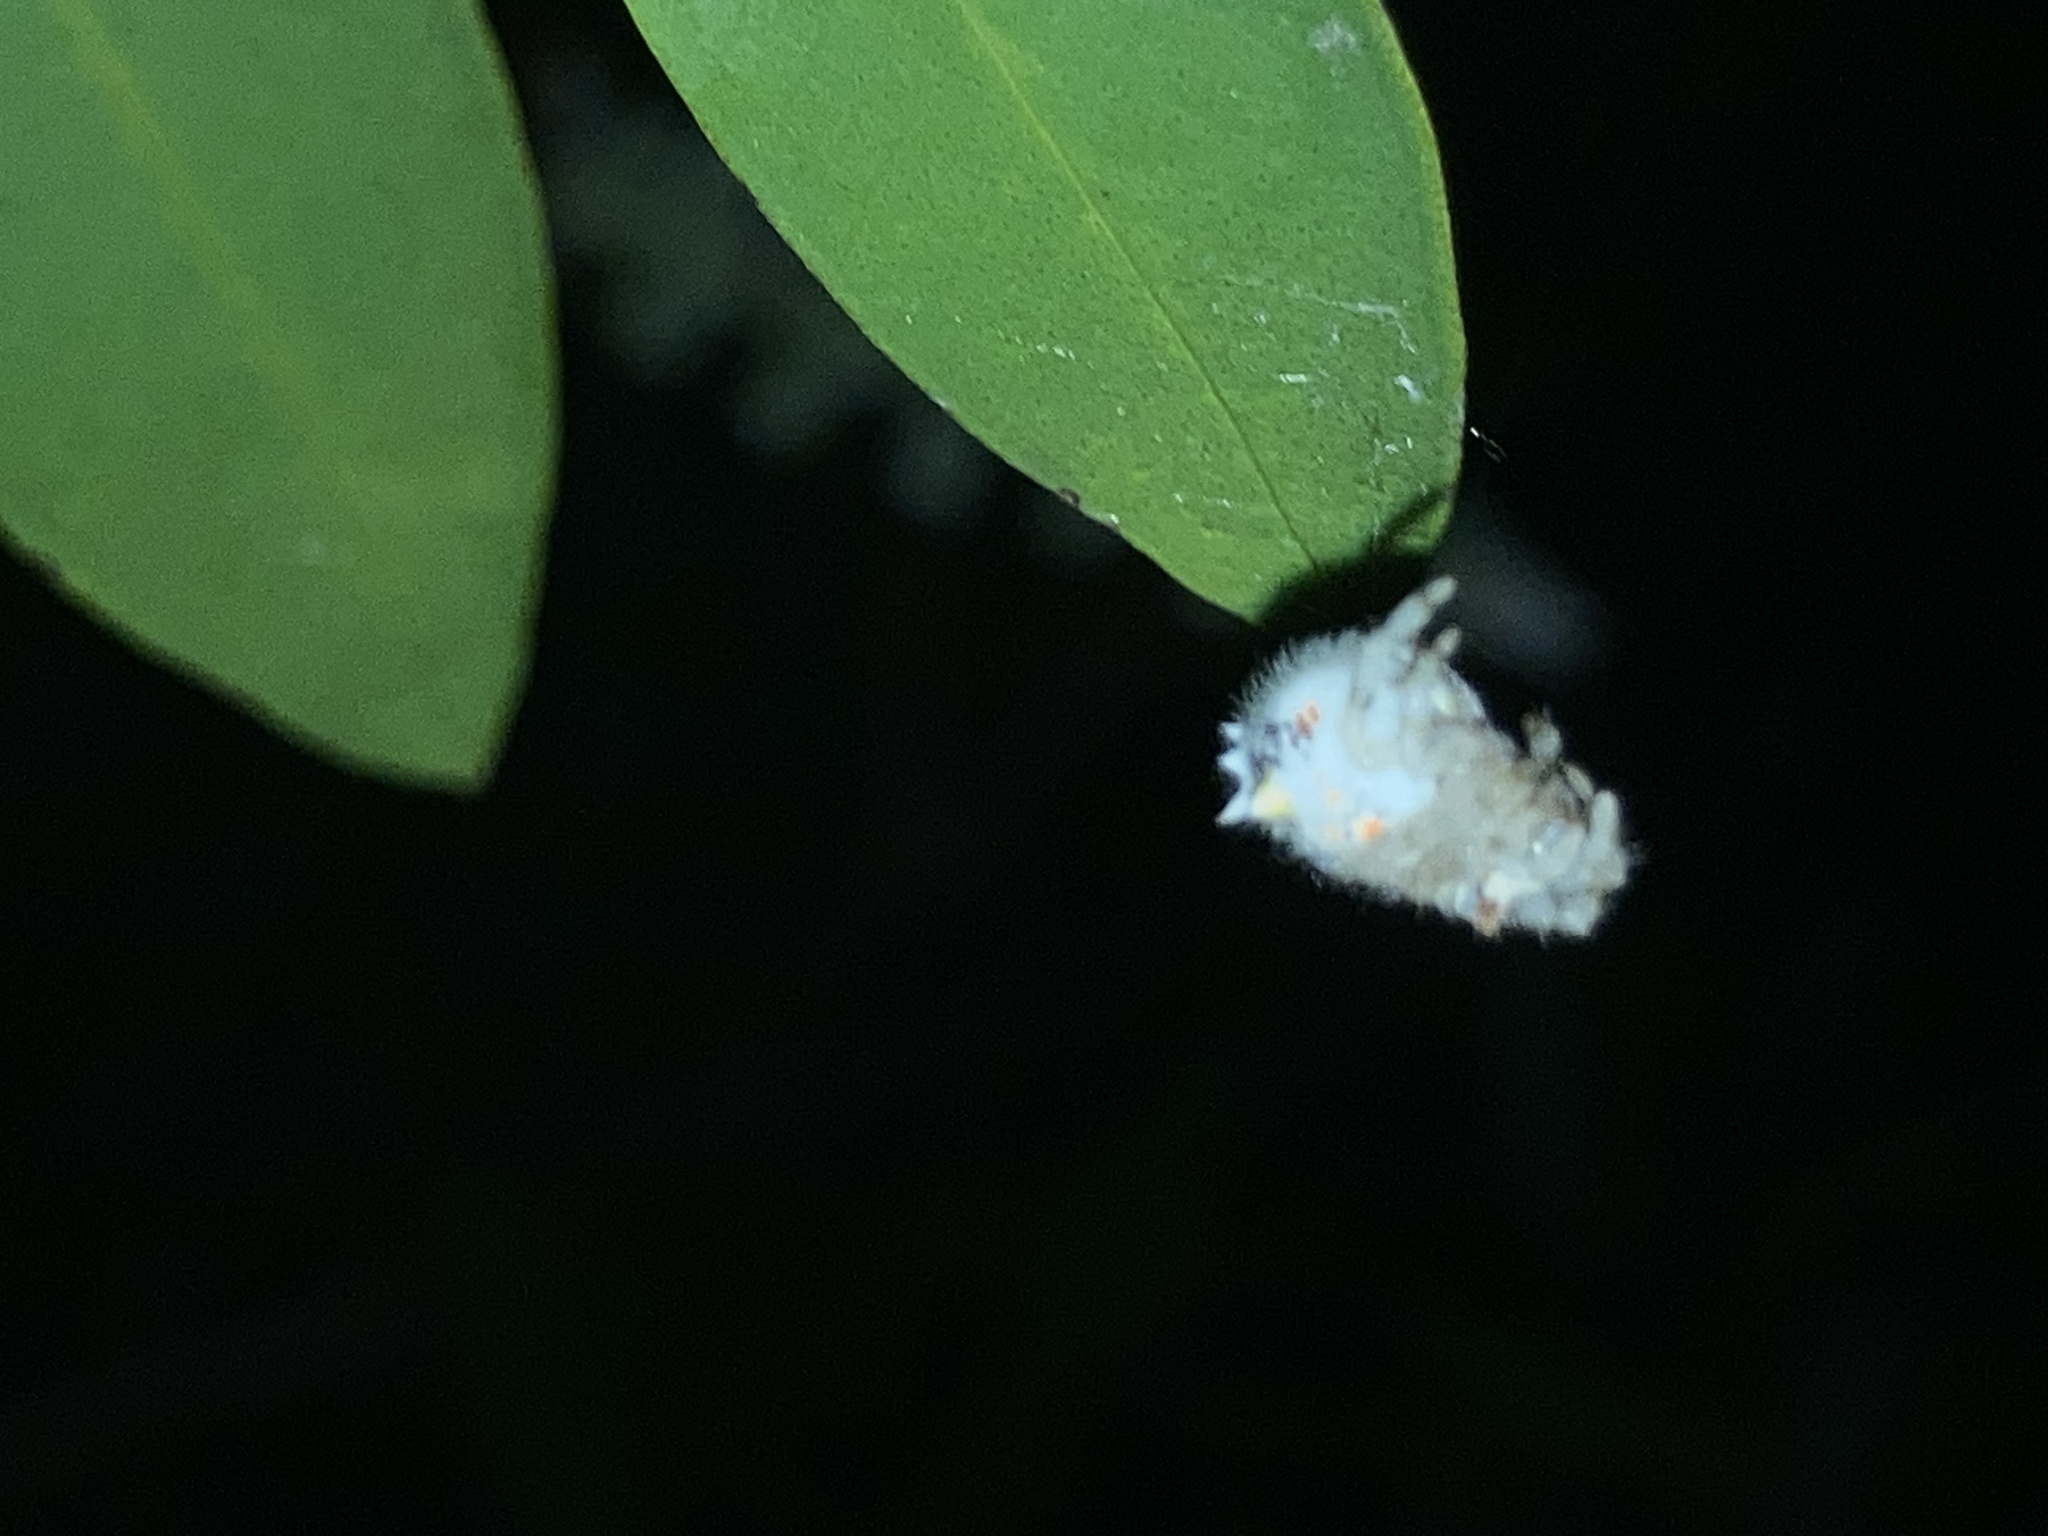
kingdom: Animalia
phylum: Arthropoda
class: Arachnida
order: Araneae
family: Araneidae
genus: Ordgarius
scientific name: Ordgarius magnificus
